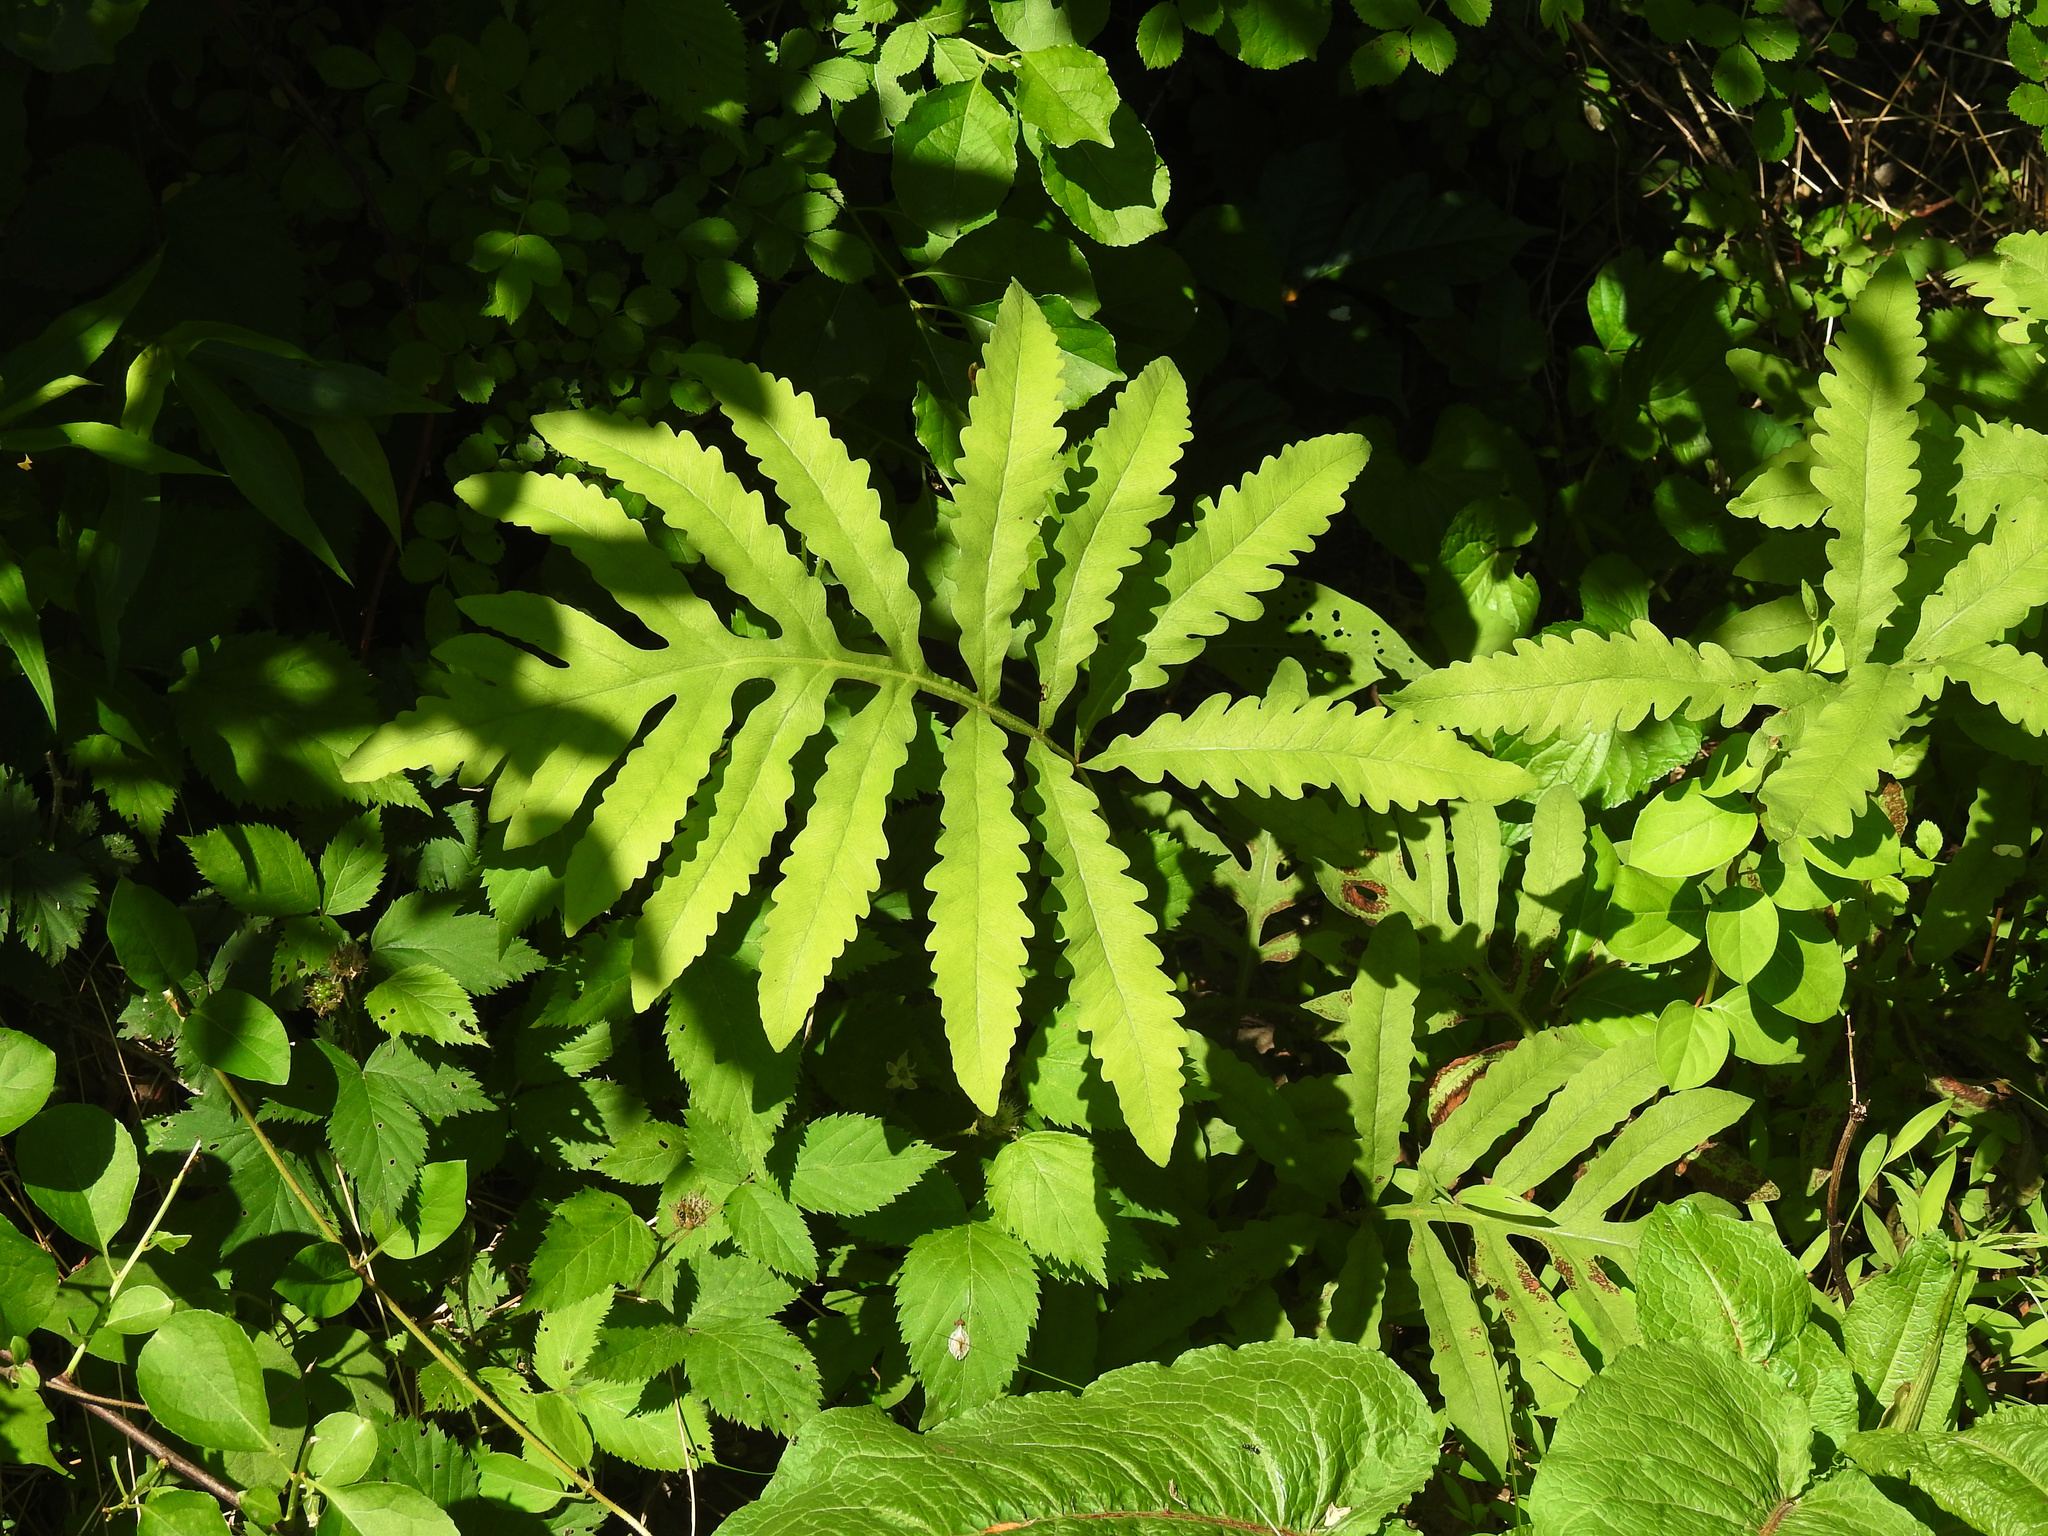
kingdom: Plantae
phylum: Tracheophyta
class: Polypodiopsida
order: Polypodiales
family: Onocleaceae
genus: Onoclea
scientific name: Onoclea sensibilis
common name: Sensitive fern
